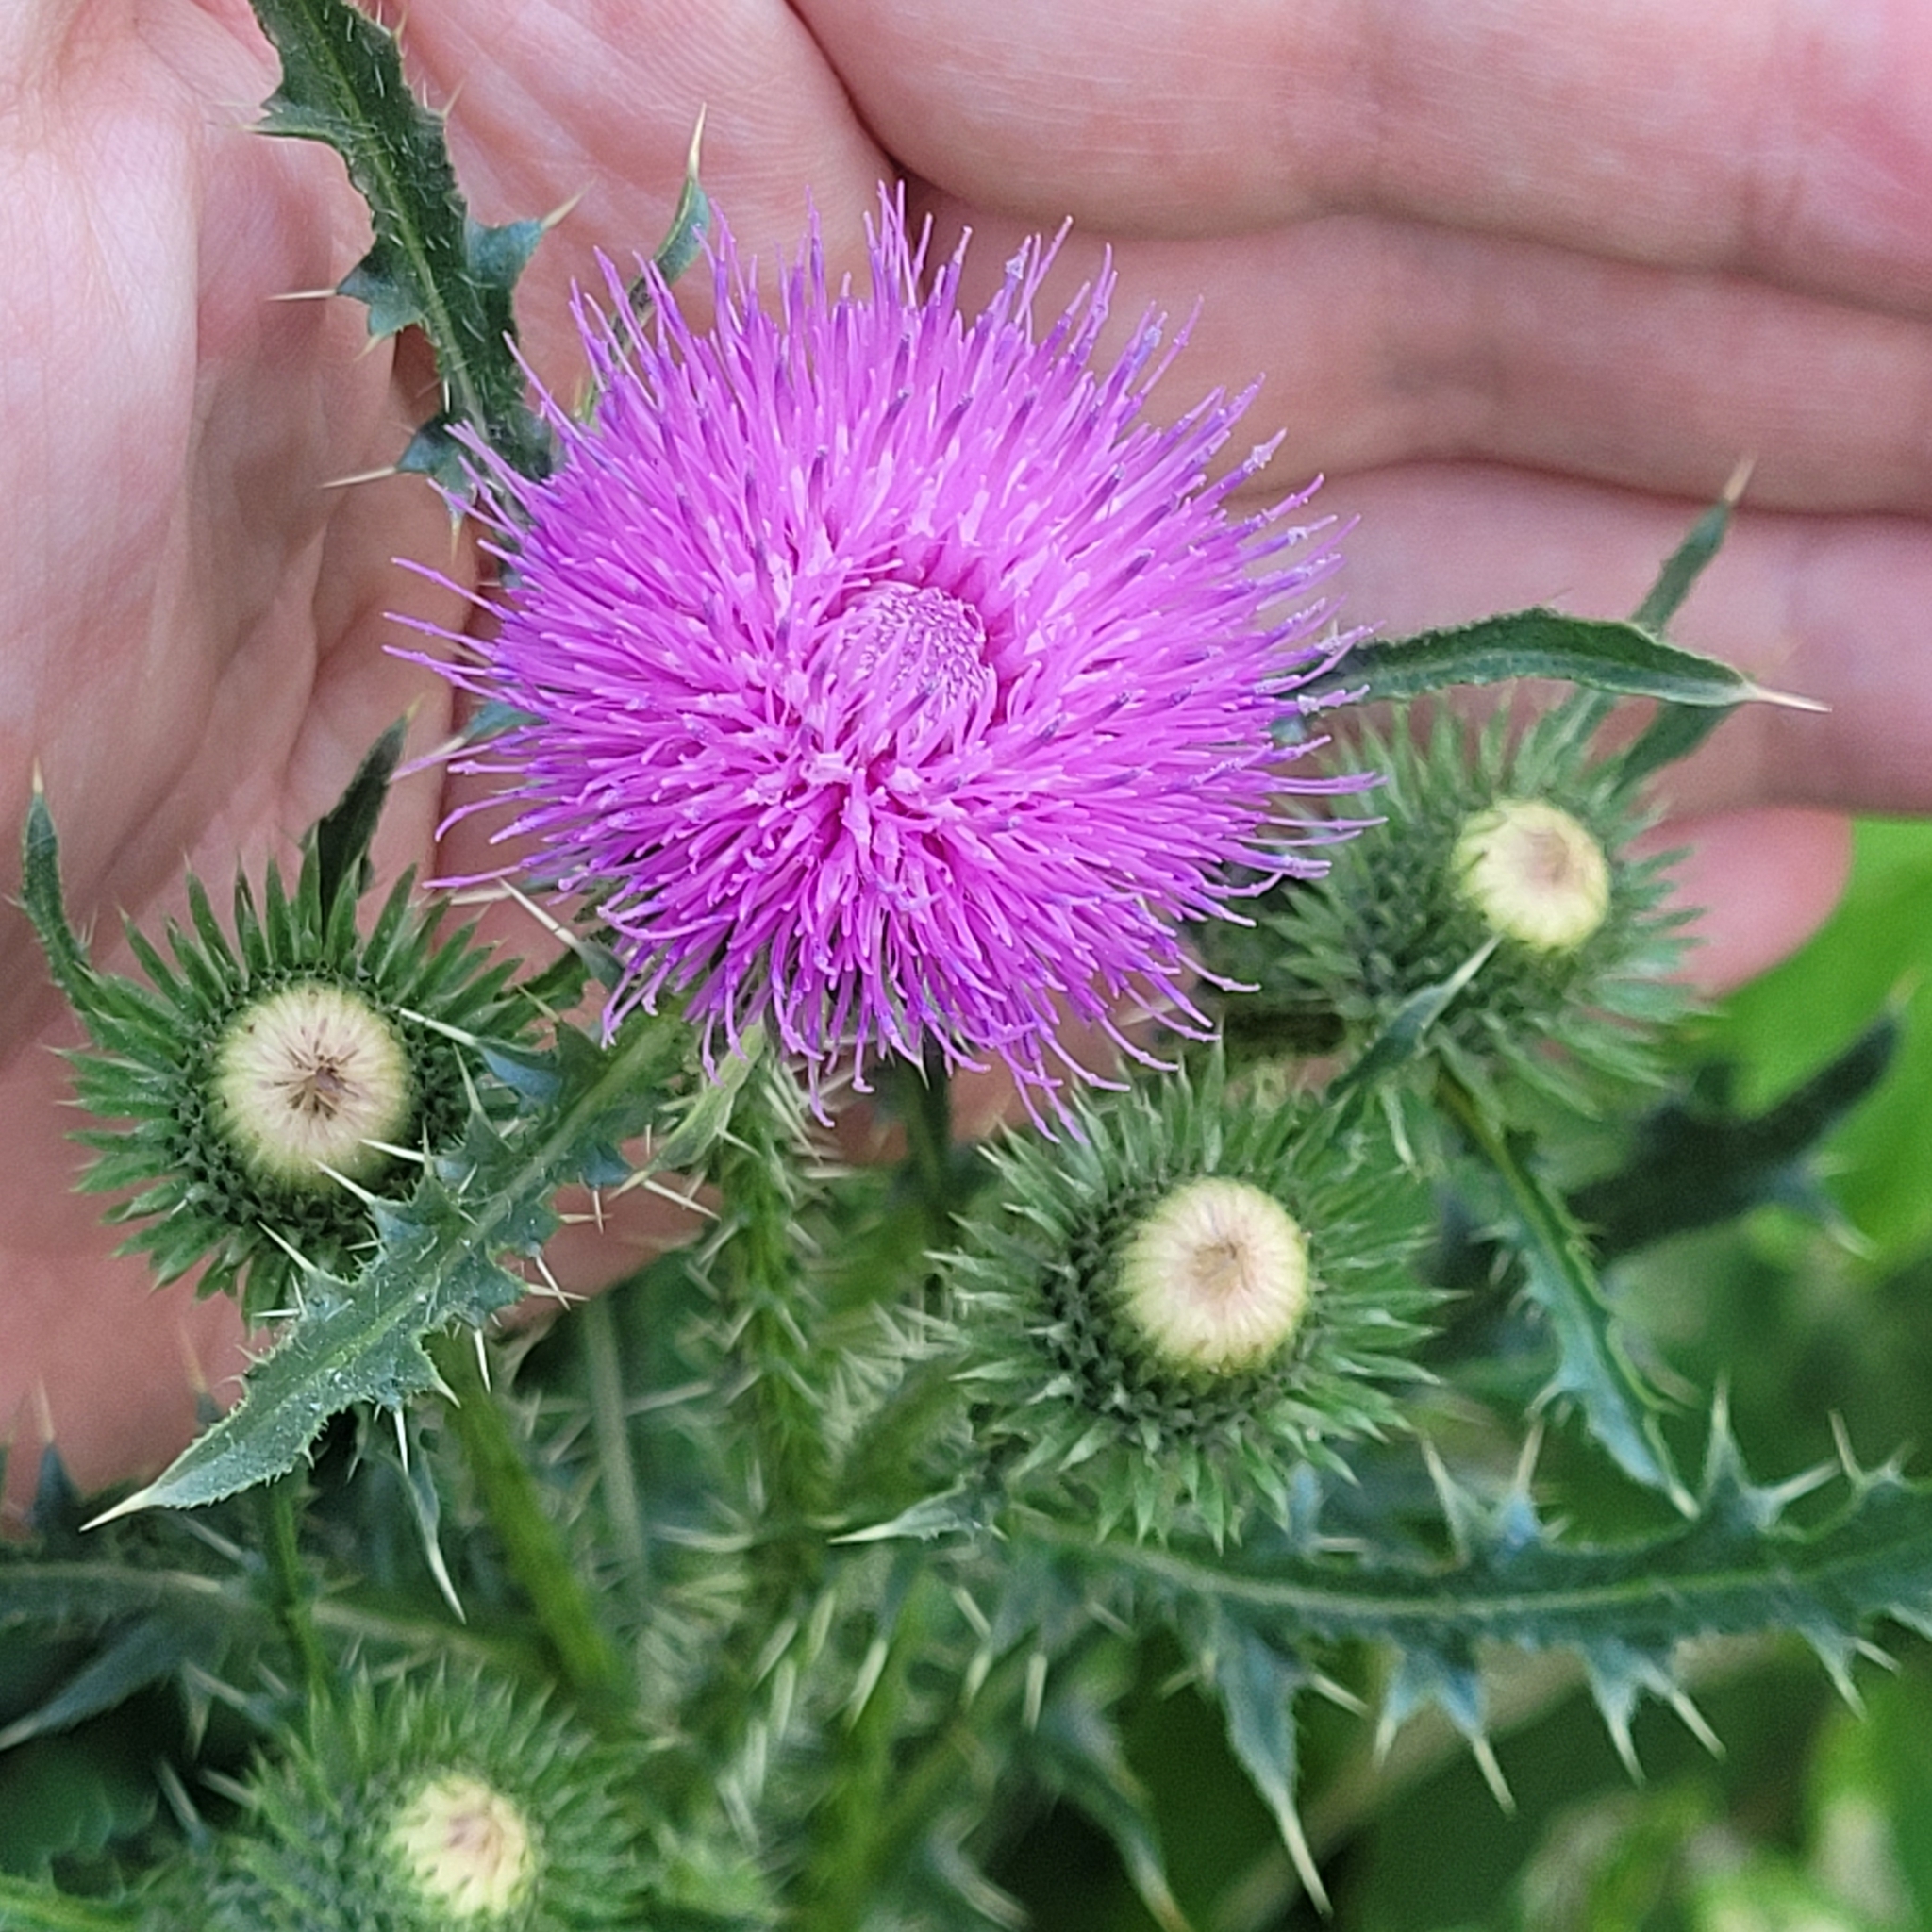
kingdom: Plantae
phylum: Tracheophyta
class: Magnoliopsida
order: Asterales
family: Asteraceae
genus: Carduus
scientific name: Carduus acanthoides
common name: Plumeless thistle
